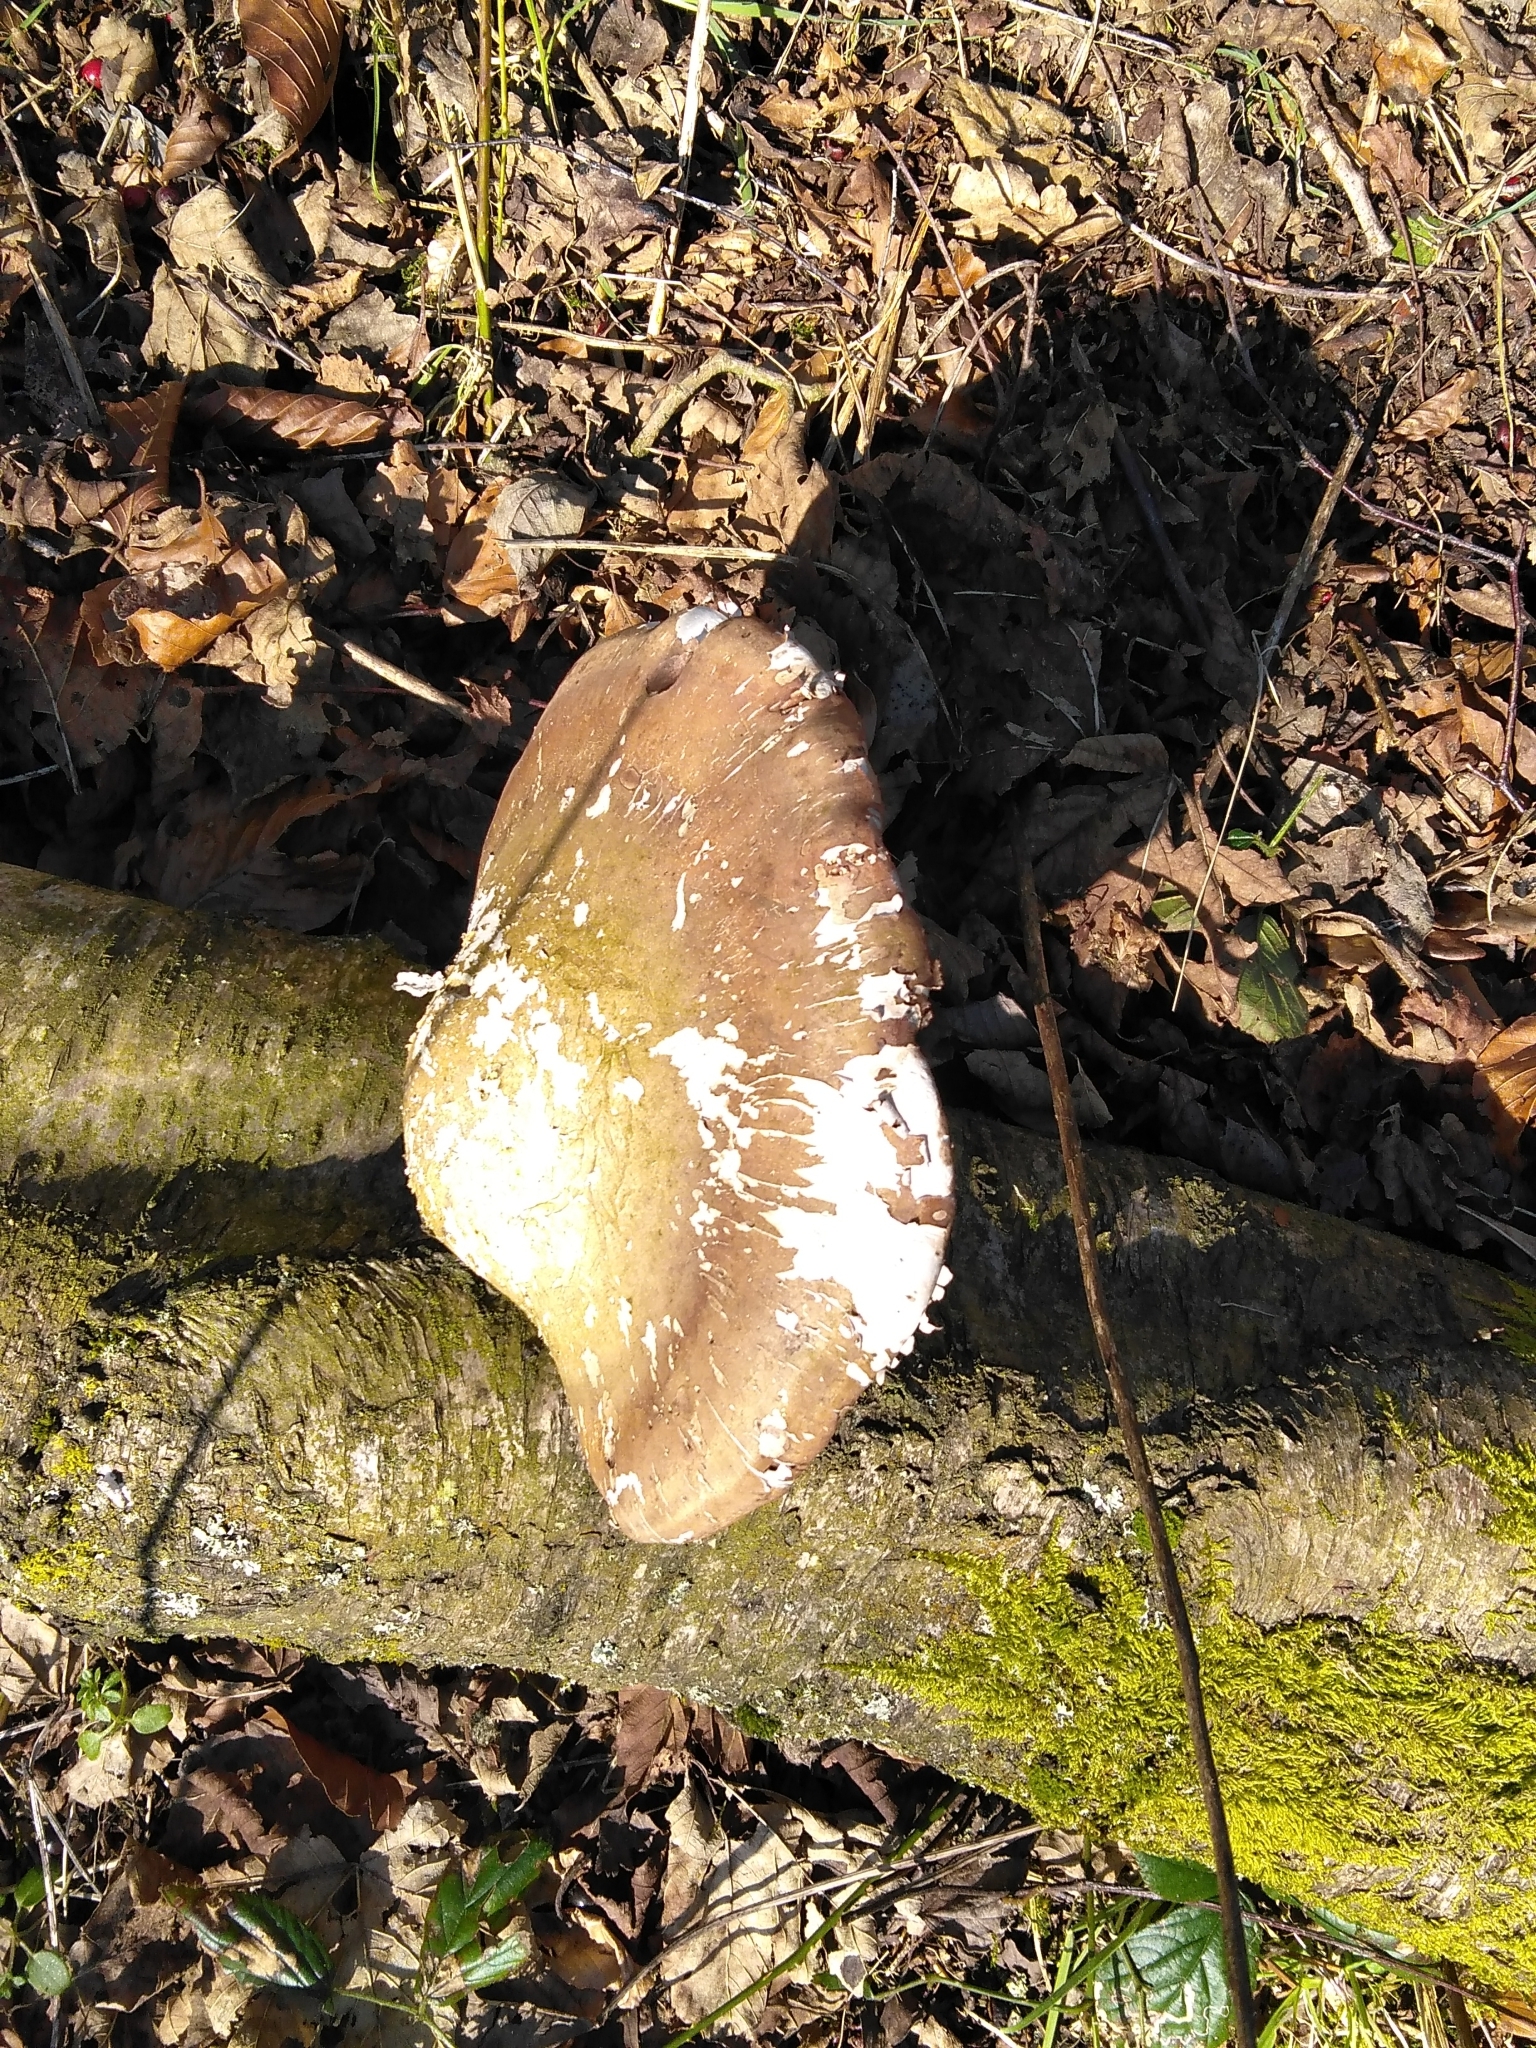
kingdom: Fungi
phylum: Basidiomycota
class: Agaricomycetes
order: Polyporales
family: Fomitopsidaceae
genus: Fomitopsis
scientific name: Fomitopsis betulina
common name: Birch polypore
